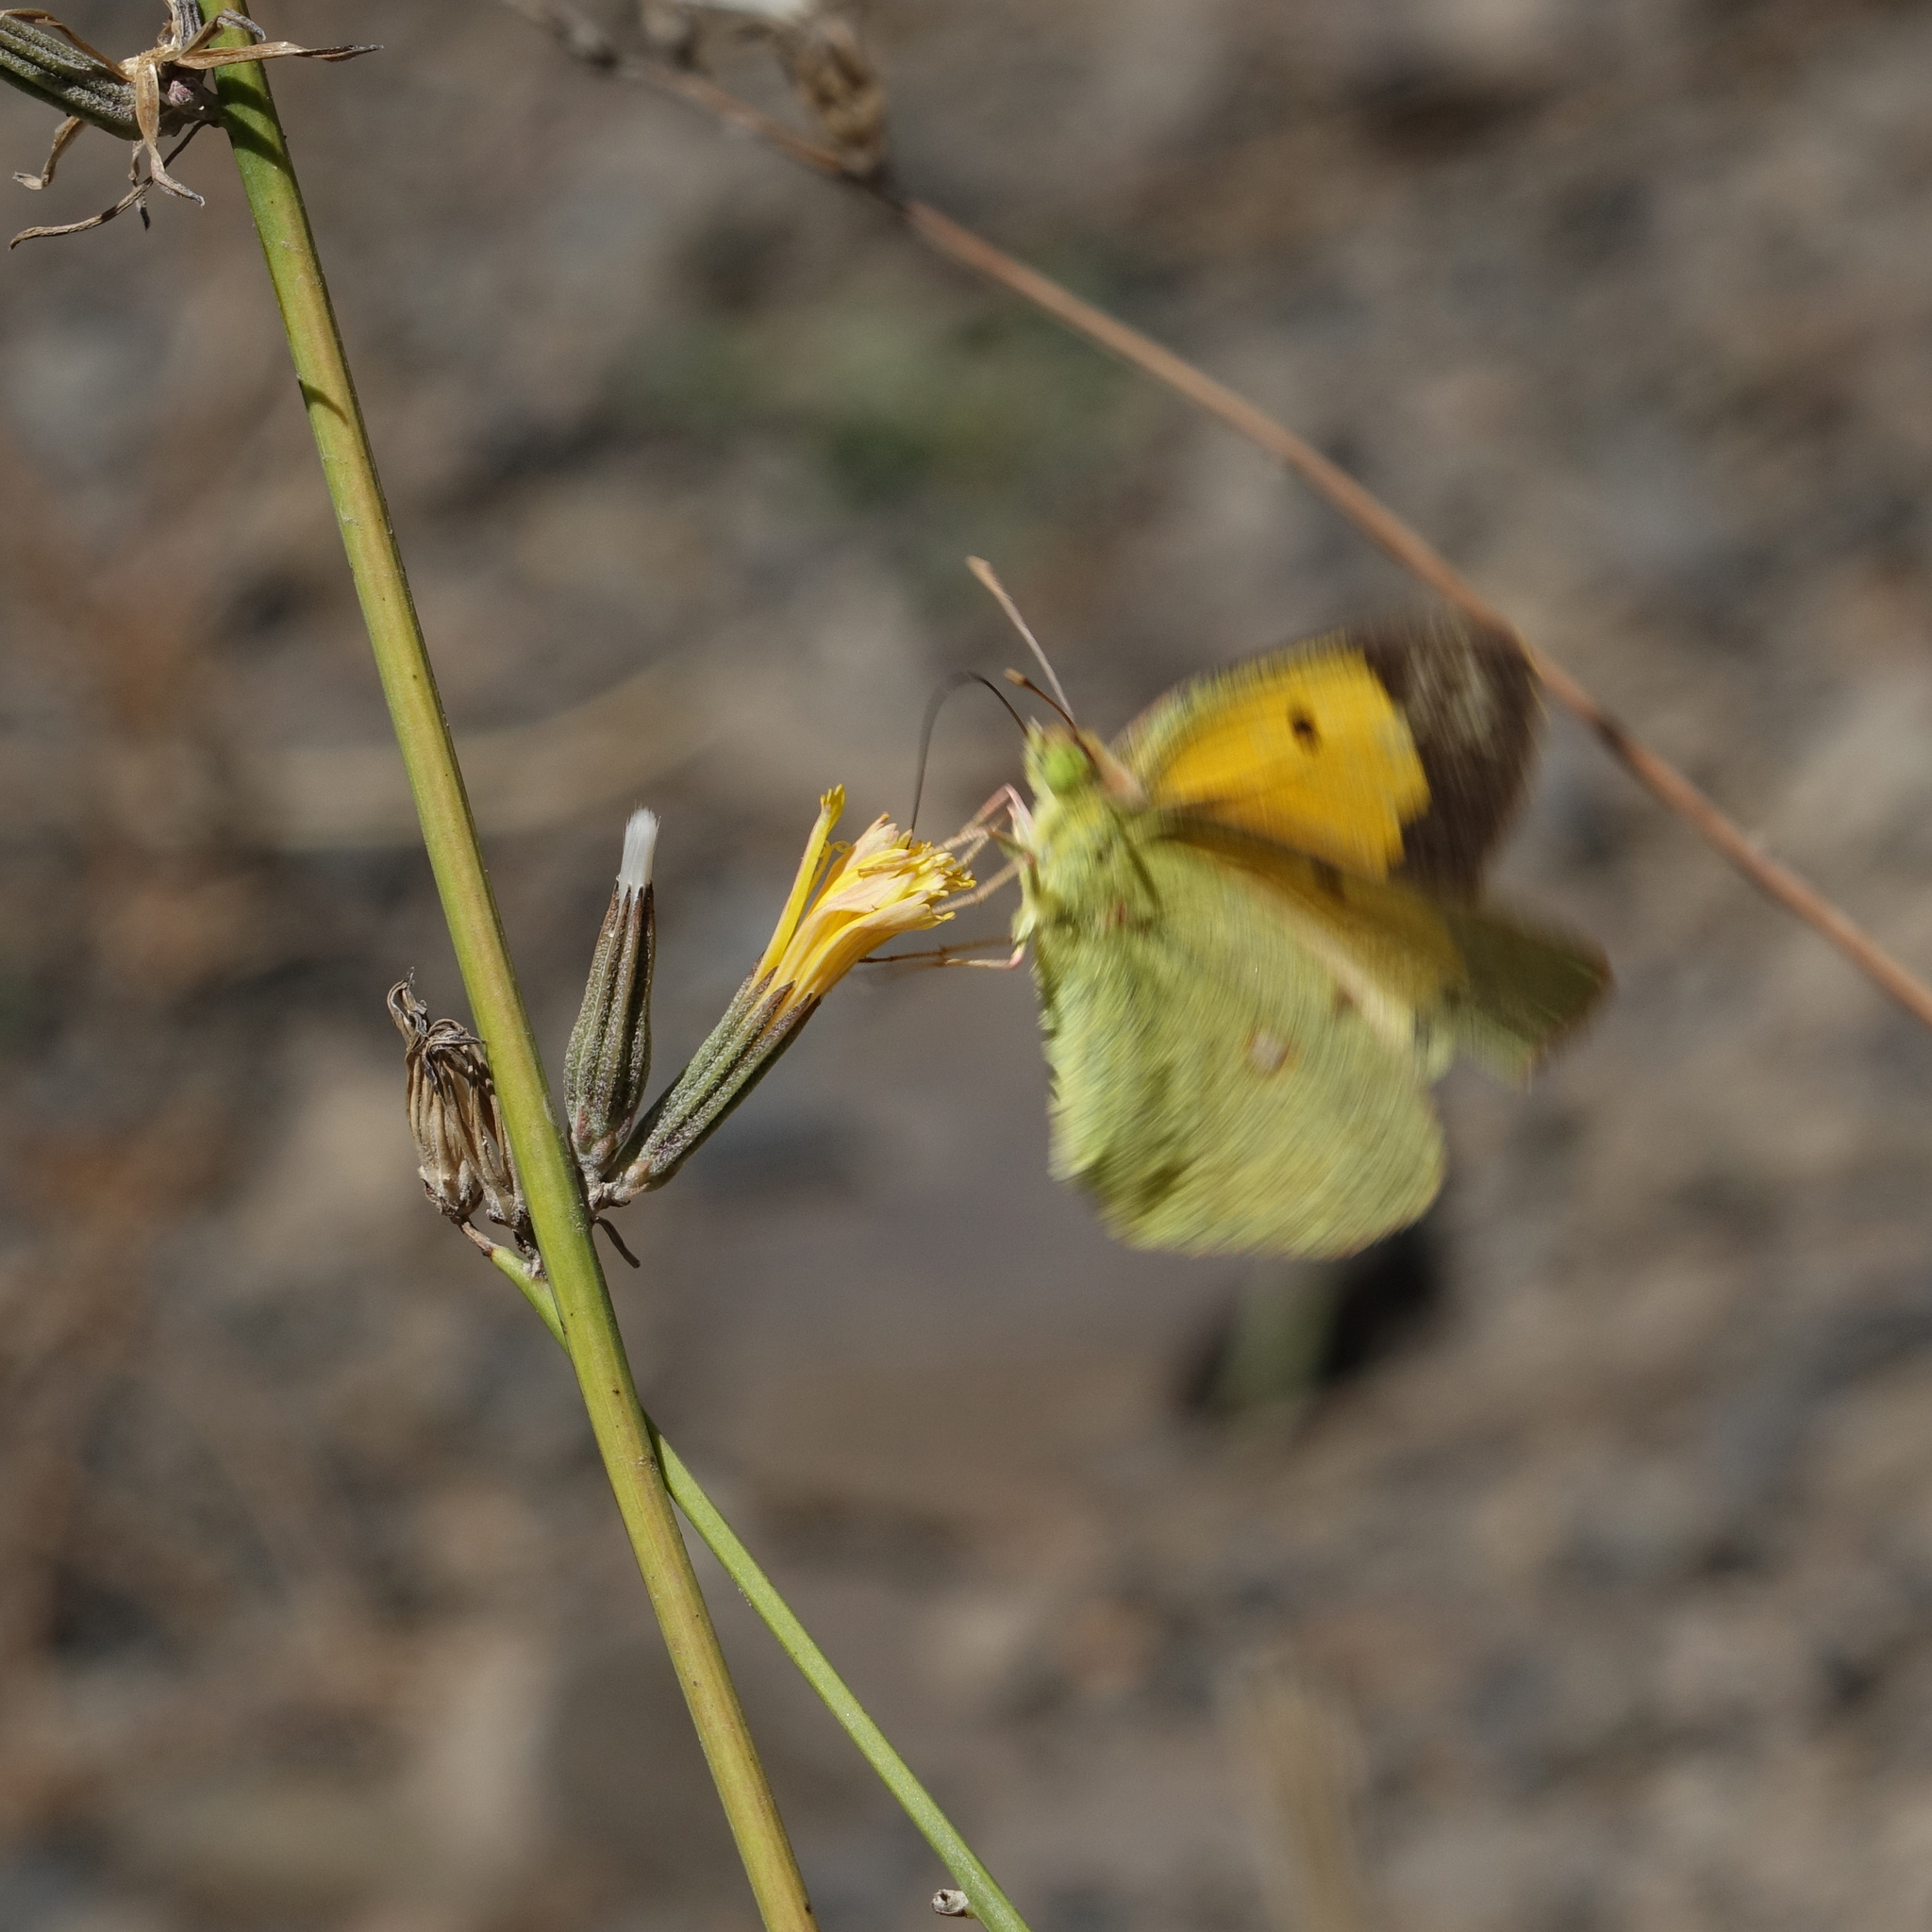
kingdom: Animalia
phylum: Arthropoda
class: Insecta
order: Lepidoptera
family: Pieridae
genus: Colias
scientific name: Colias croceus
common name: Clouded yellow
